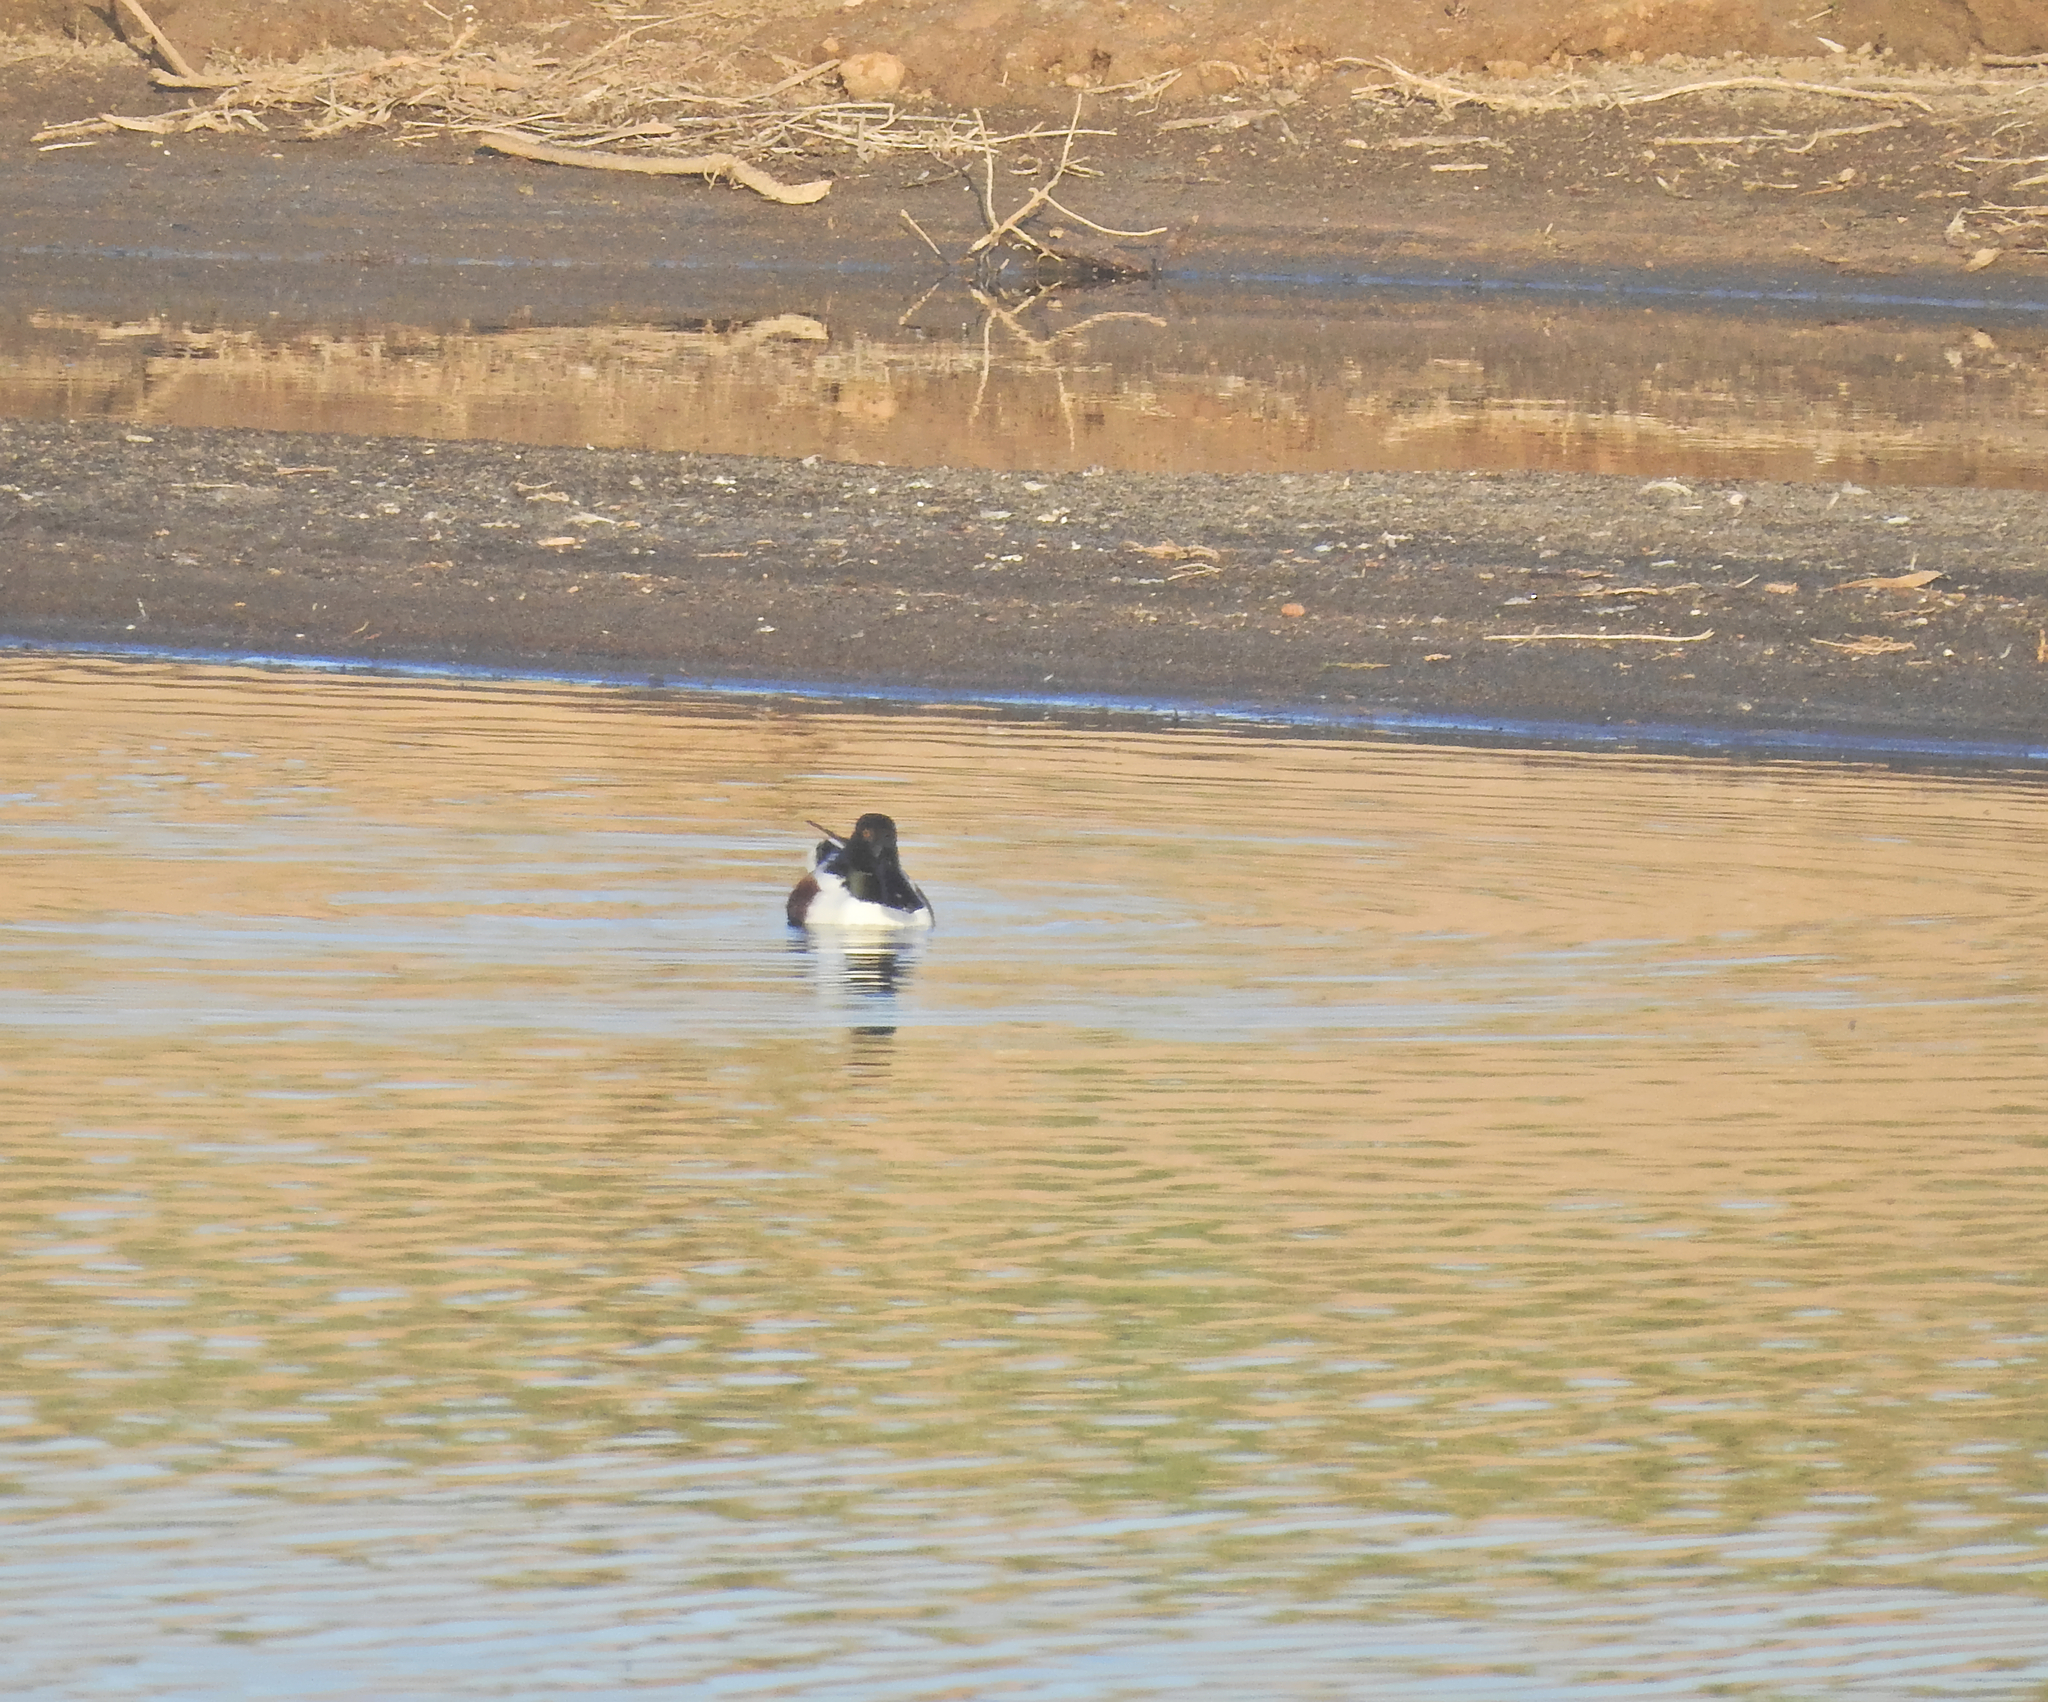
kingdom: Animalia
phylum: Chordata
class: Aves
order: Anseriformes
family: Anatidae
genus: Spatula
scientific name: Spatula clypeata
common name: Northern shoveler
